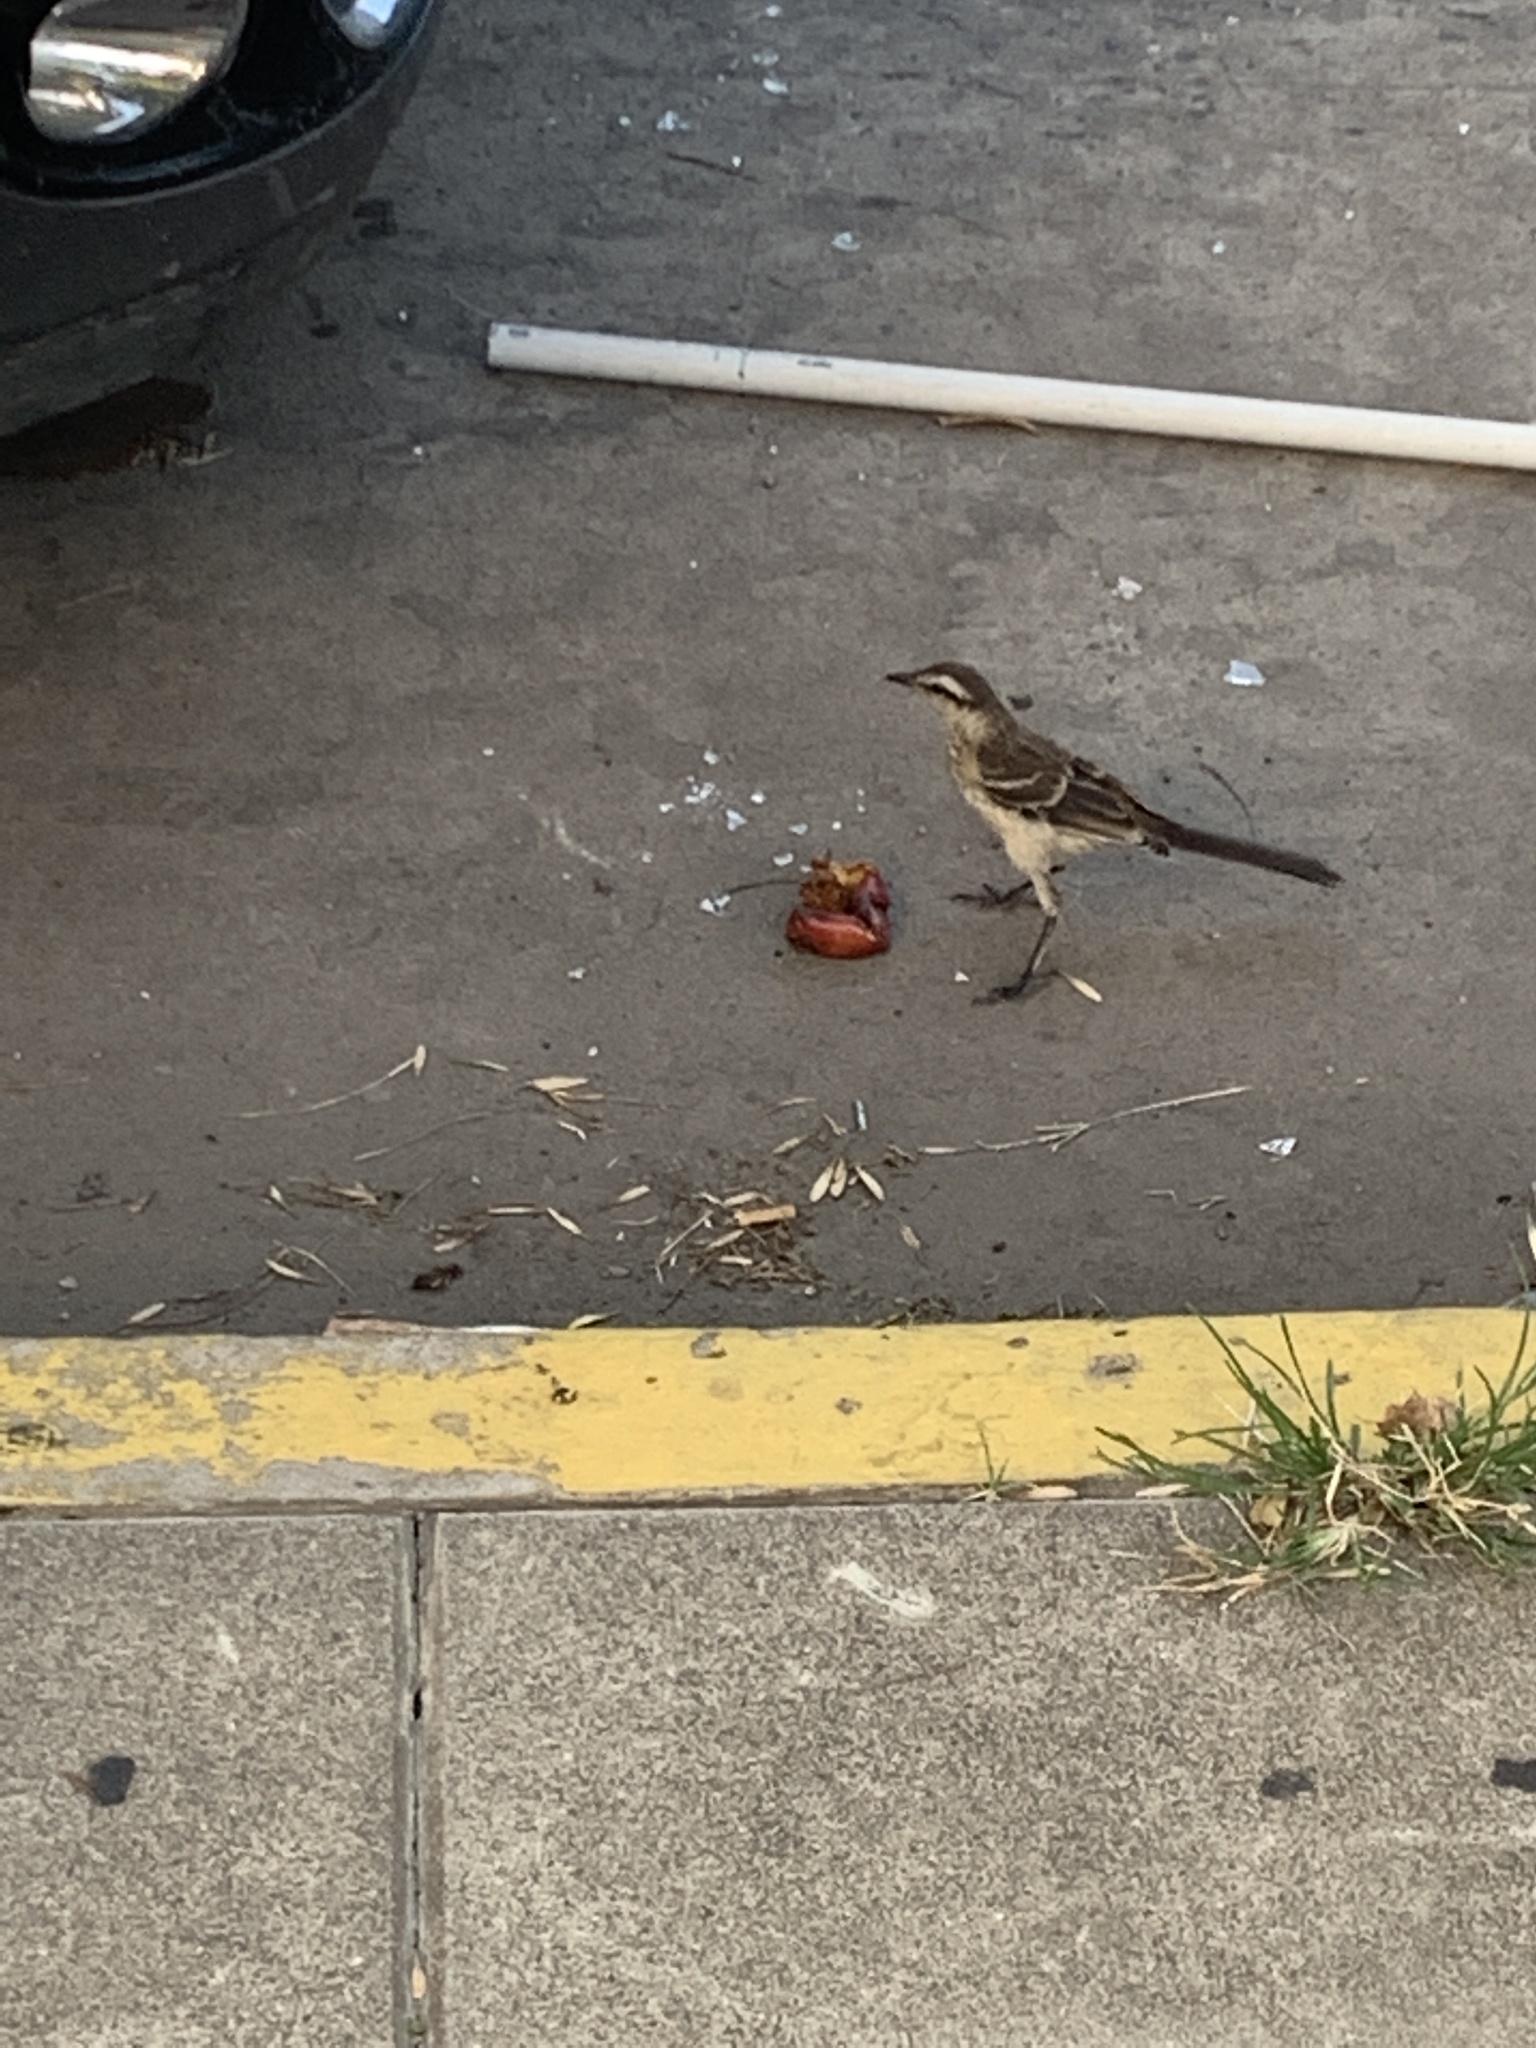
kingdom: Animalia
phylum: Chordata
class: Aves
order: Passeriformes
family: Mimidae
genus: Mimus
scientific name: Mimus saturninus
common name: Chalk-browed mockingbird
